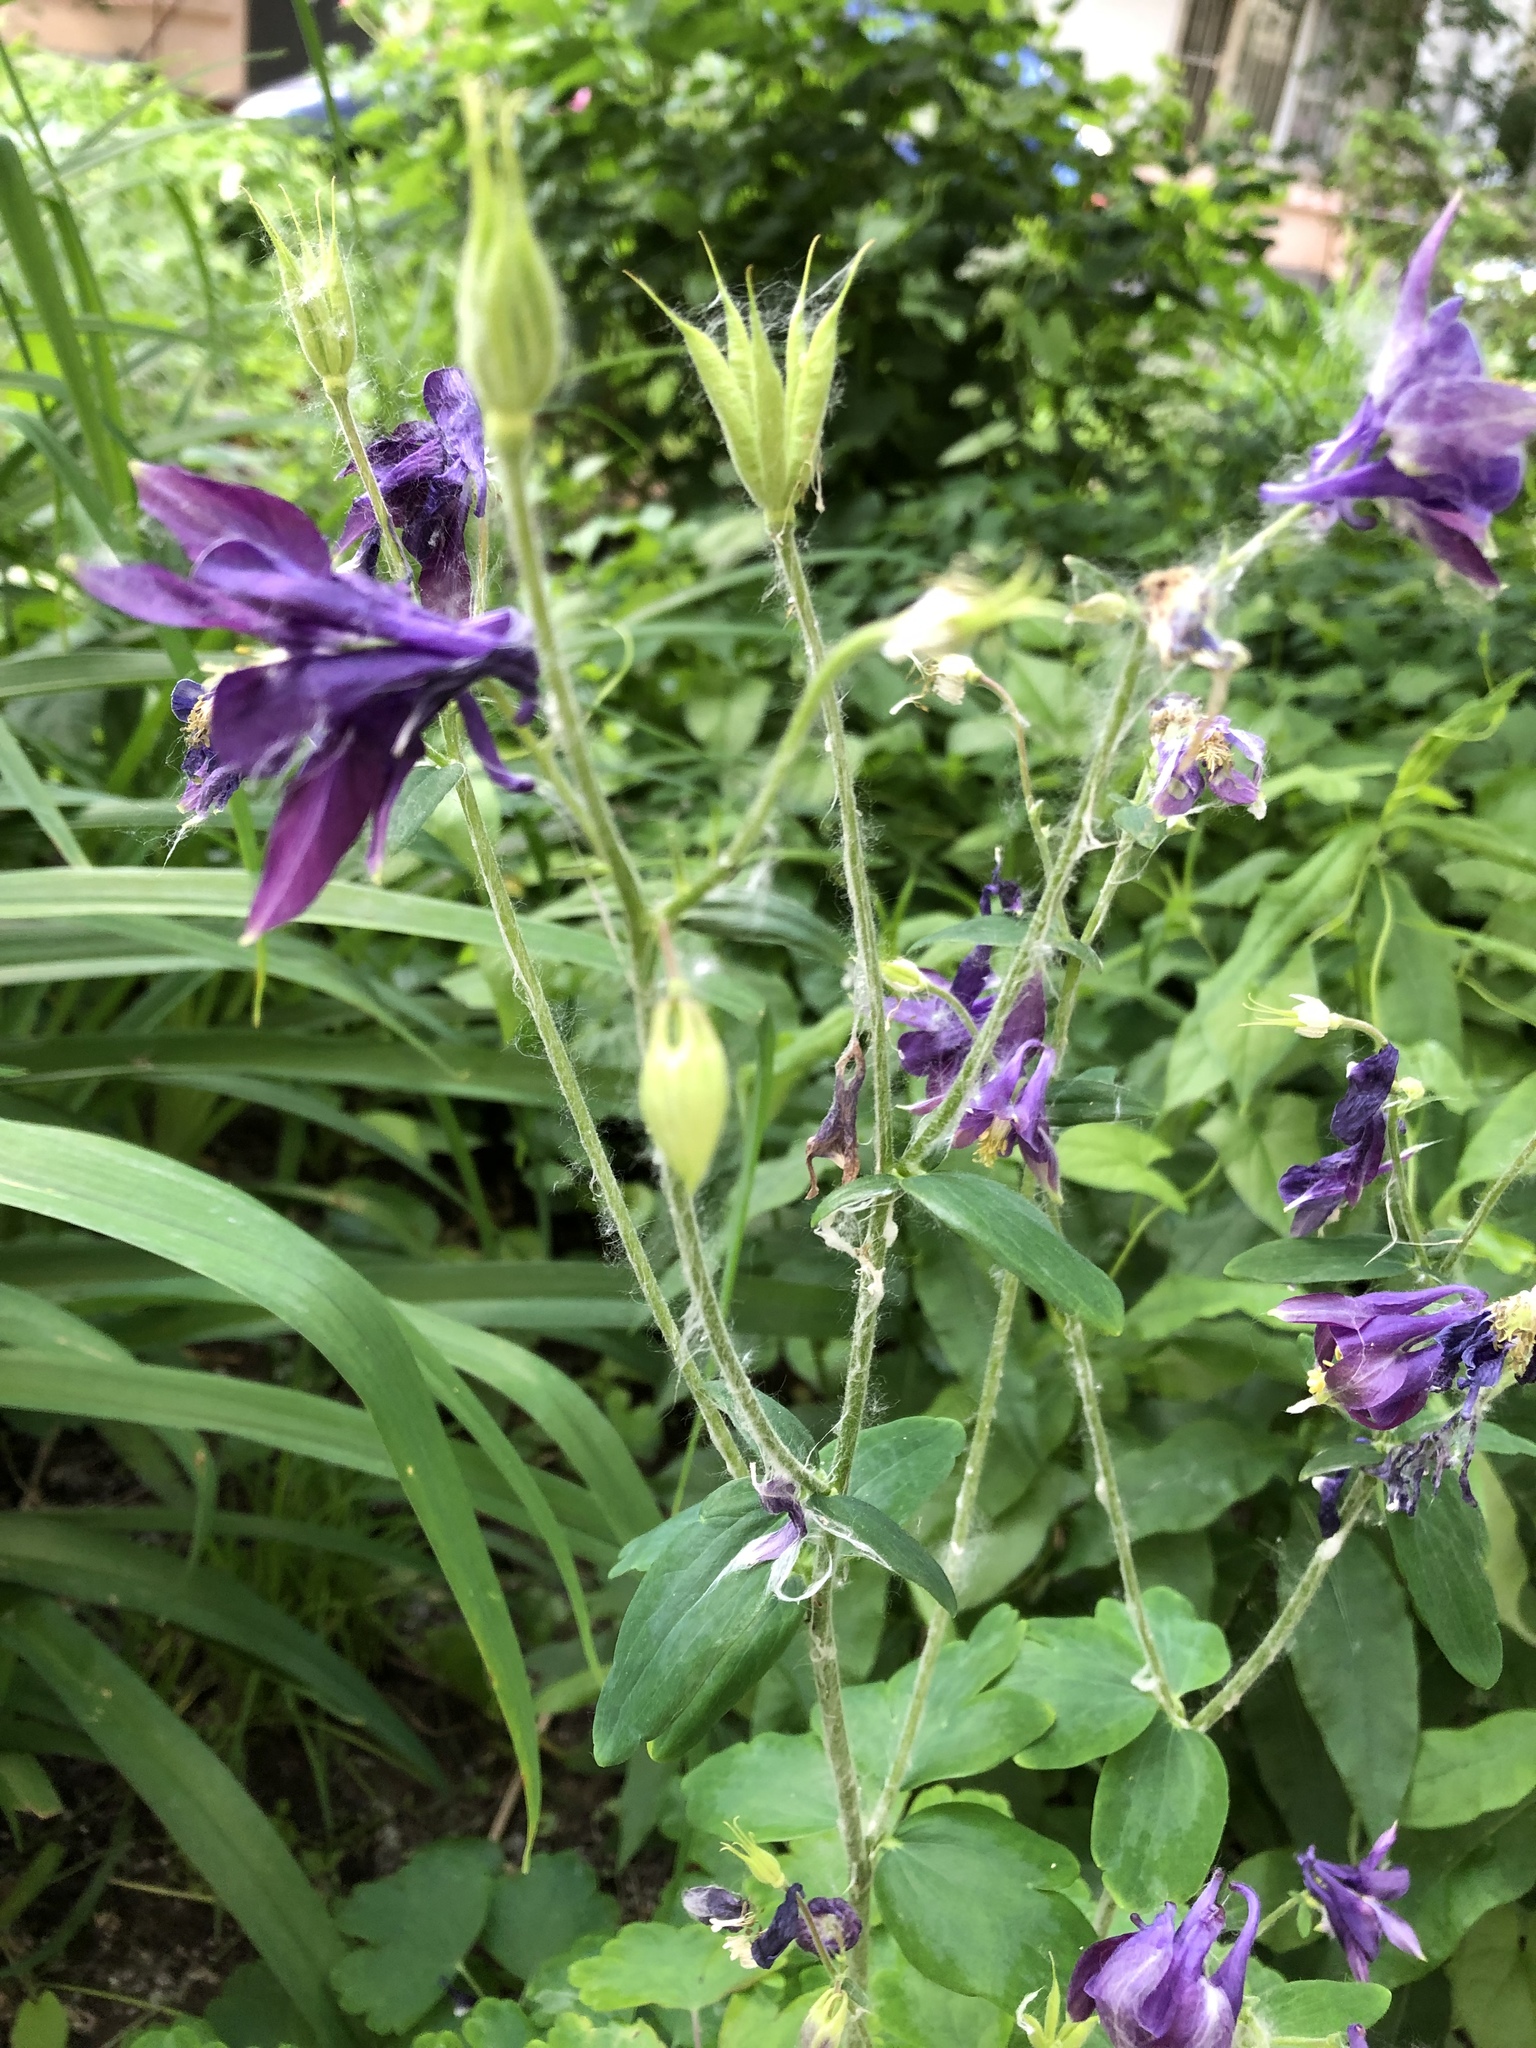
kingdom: Plantae
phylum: Tracheophyta
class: Magnoliopsida
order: Ranunculales
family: Ranunculaceae
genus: Aquilegia
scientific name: Aquilegia vulgaris
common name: Columbine
